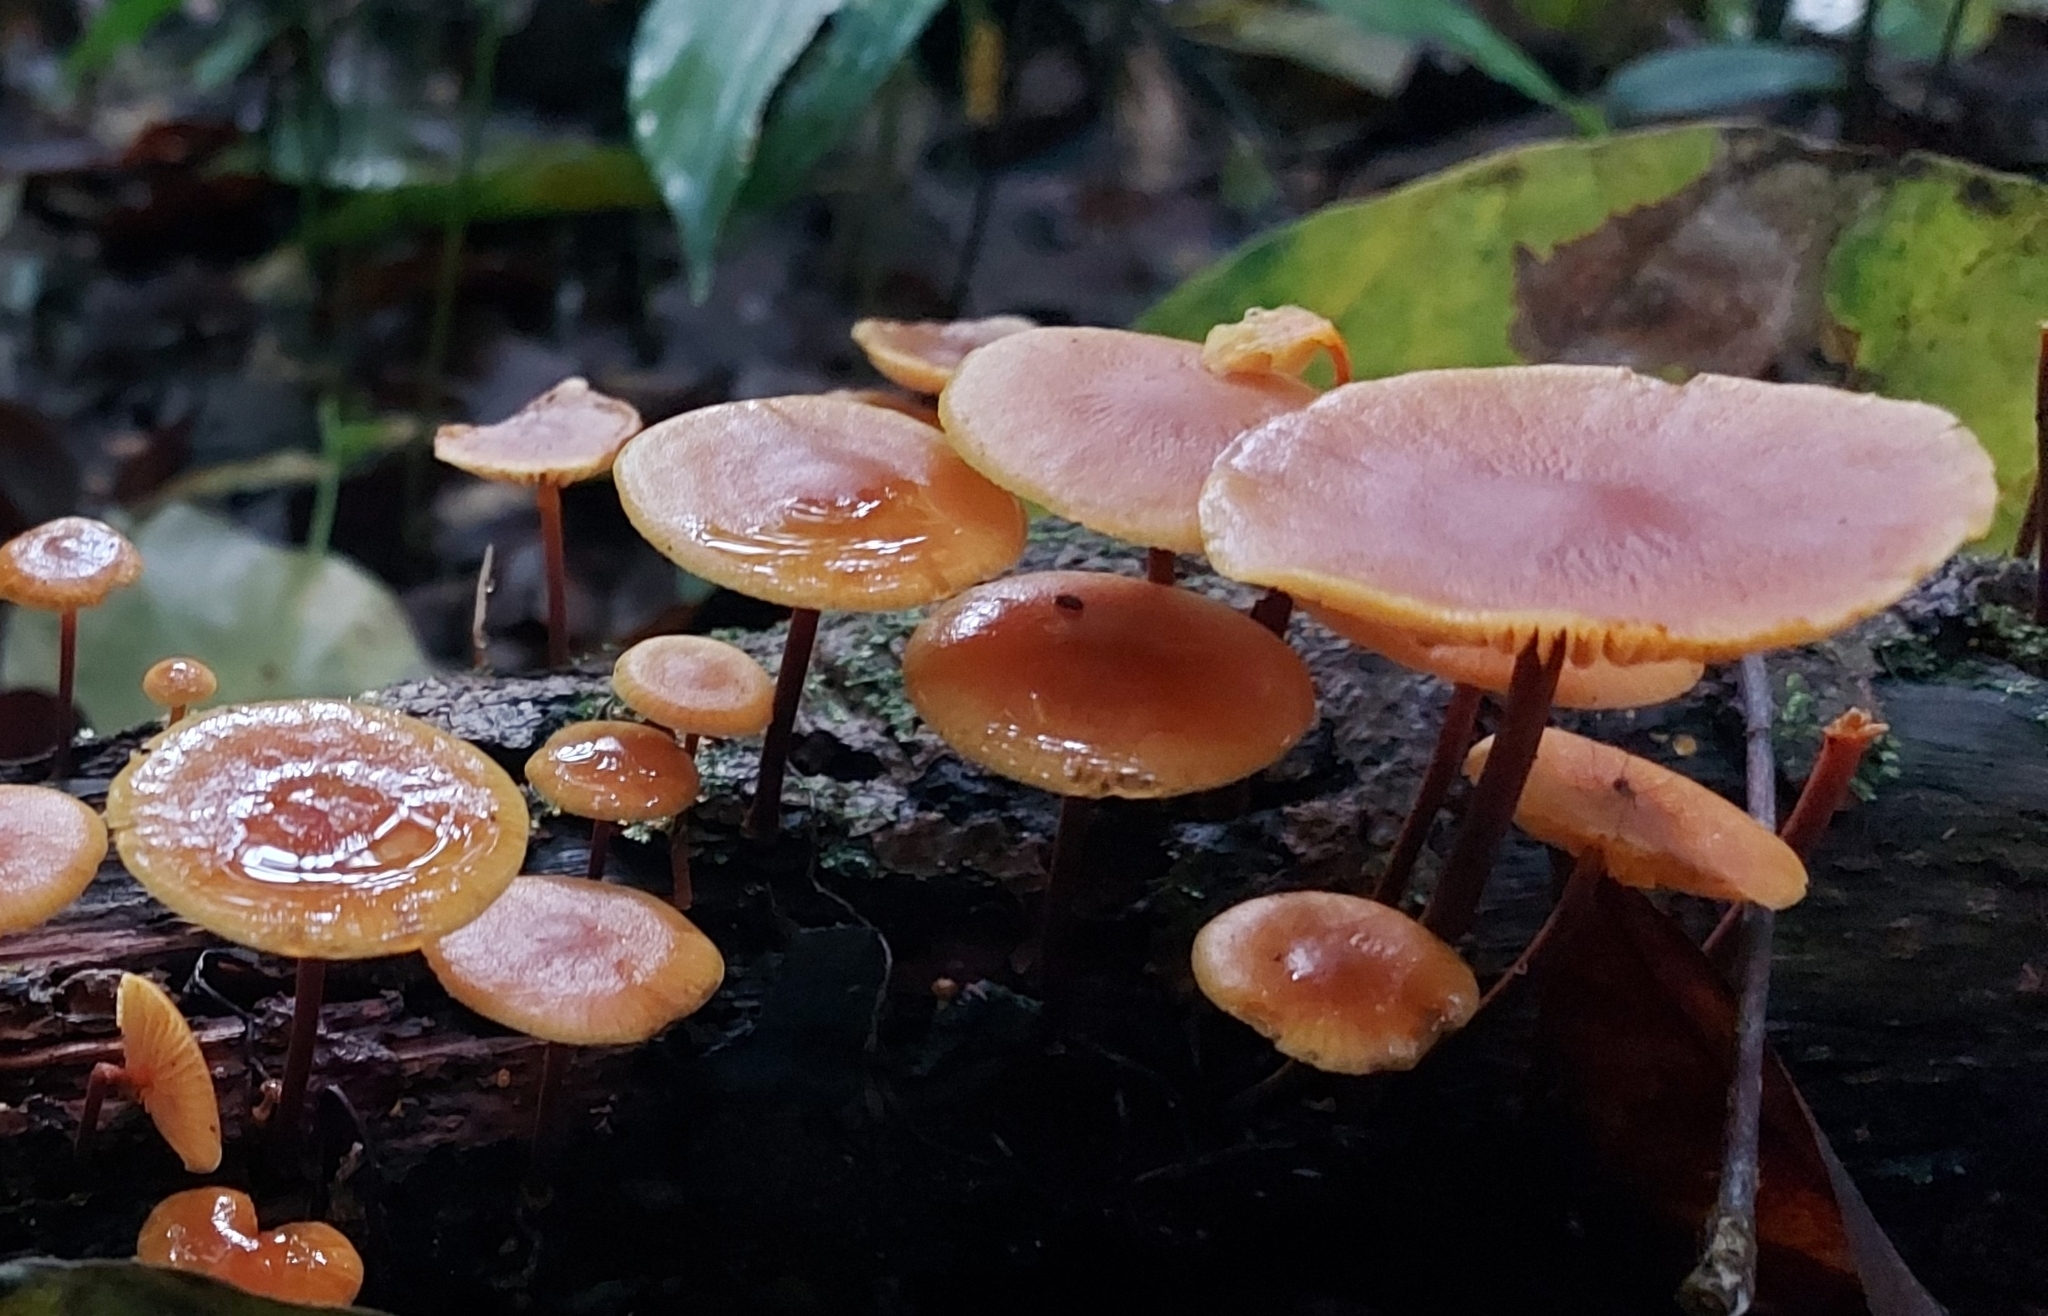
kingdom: Fungi
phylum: Basidiomycota
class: Agaricomycetes
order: Agaricales
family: Mycenaceae
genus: Xeromphalina
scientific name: Xeromphalina tenuipes
